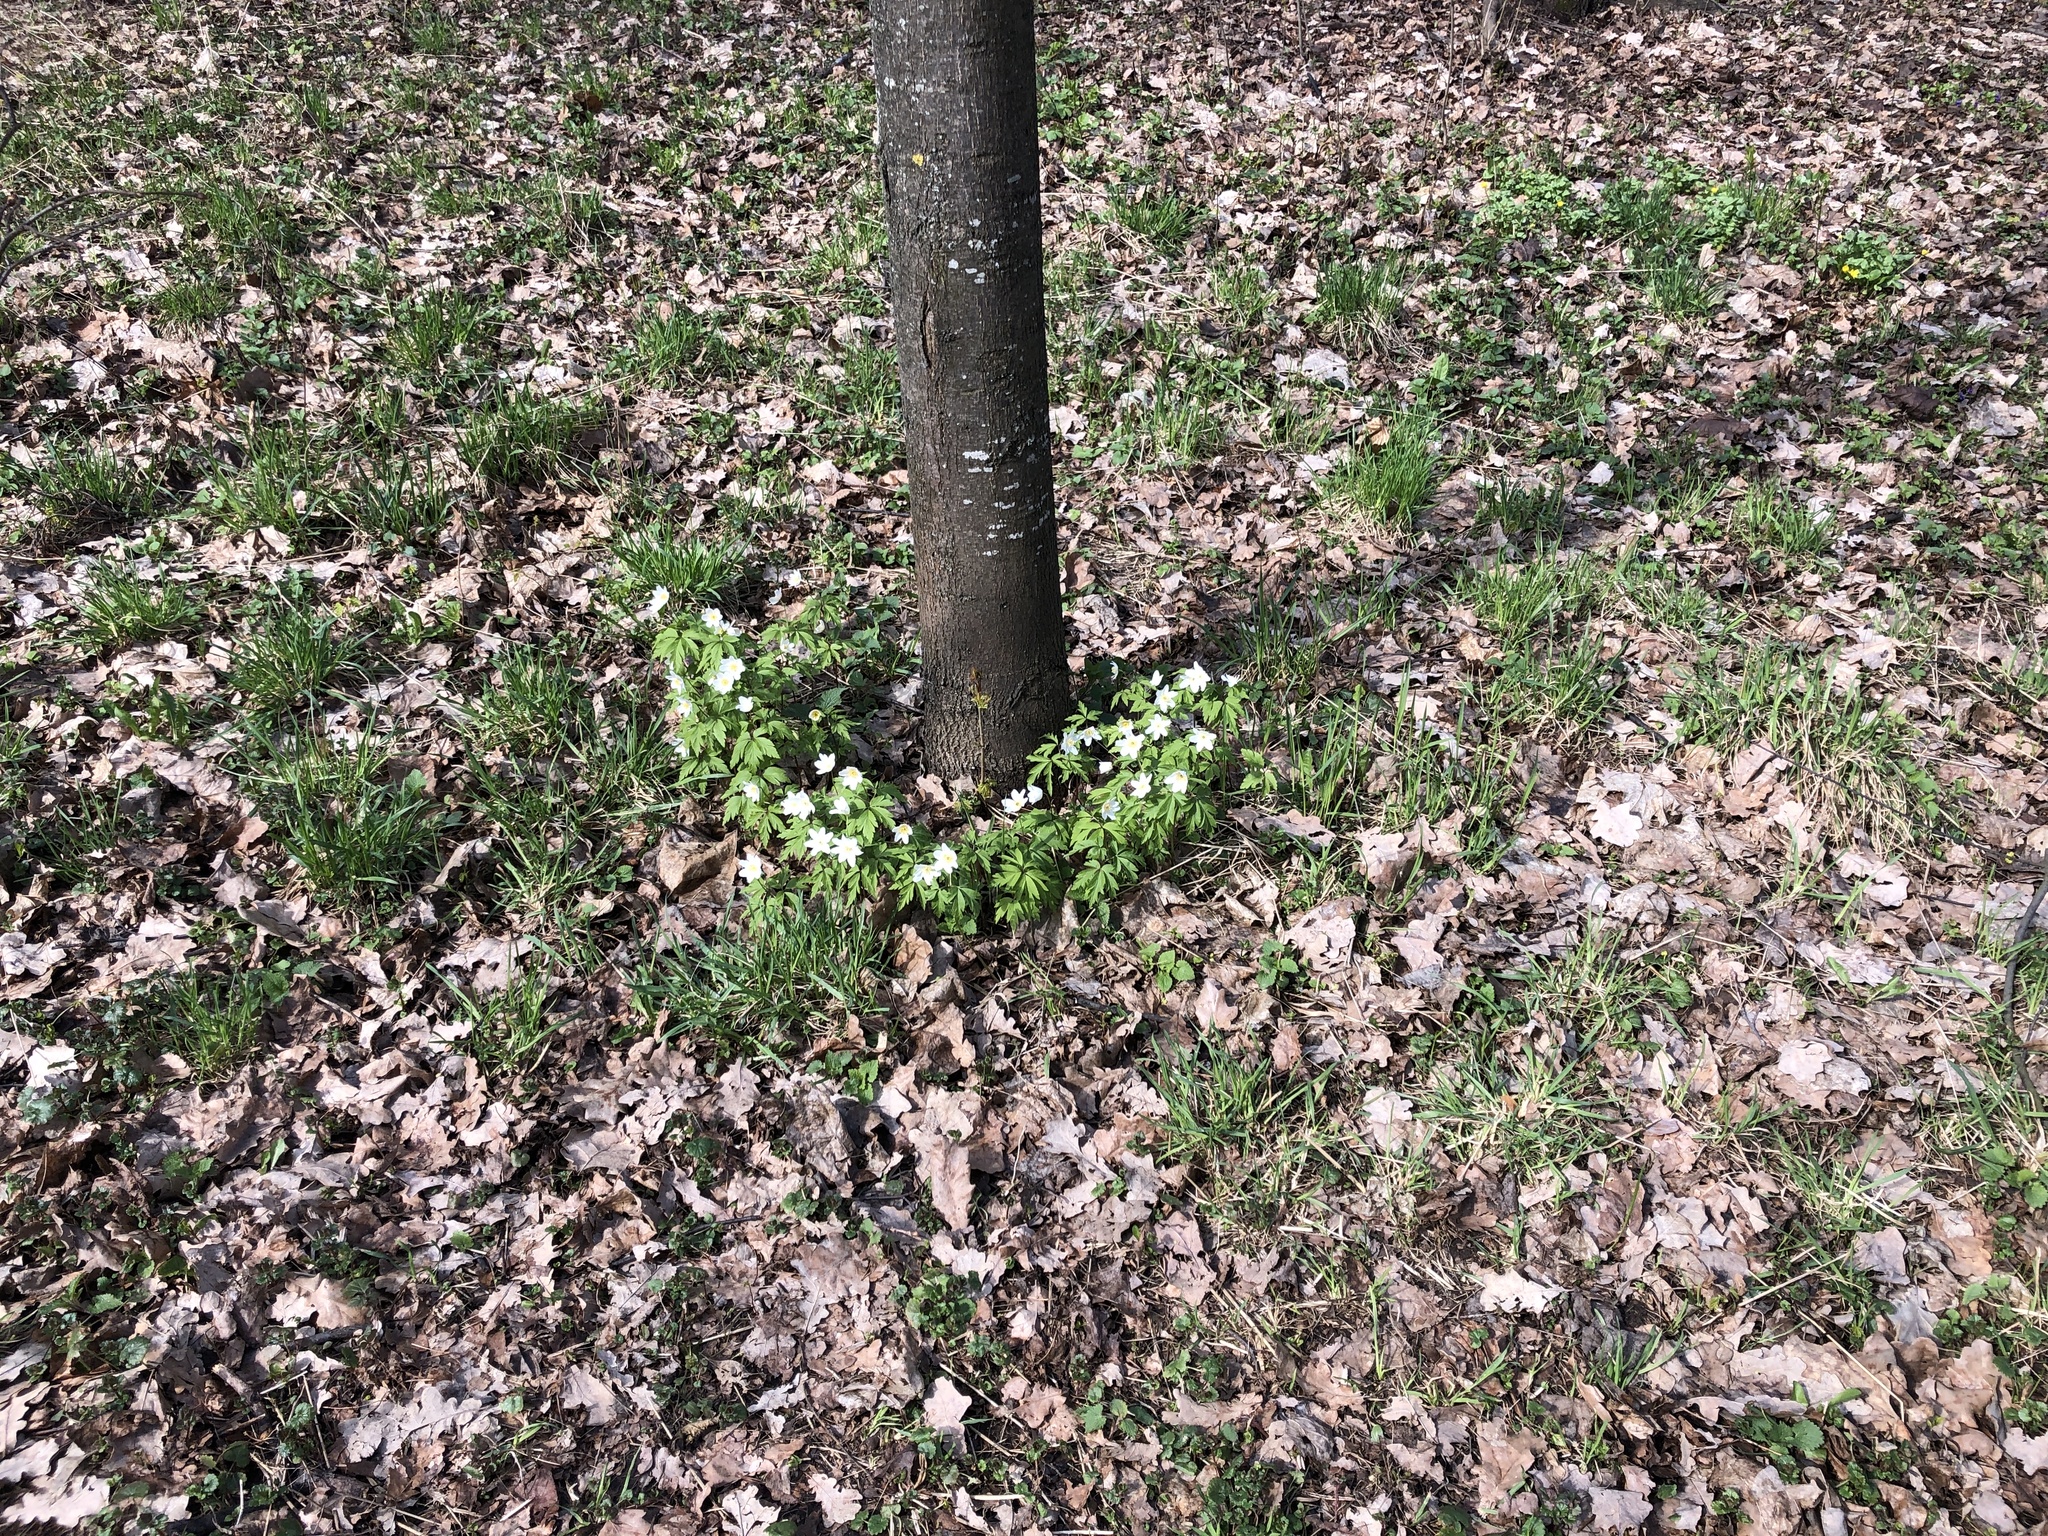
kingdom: Plantae
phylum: Tracheophyta
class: Magnoliopsida
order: Ranunculales
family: Ranunculaceae
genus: Anemone
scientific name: Anemone nemorosa
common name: Wood anemone
